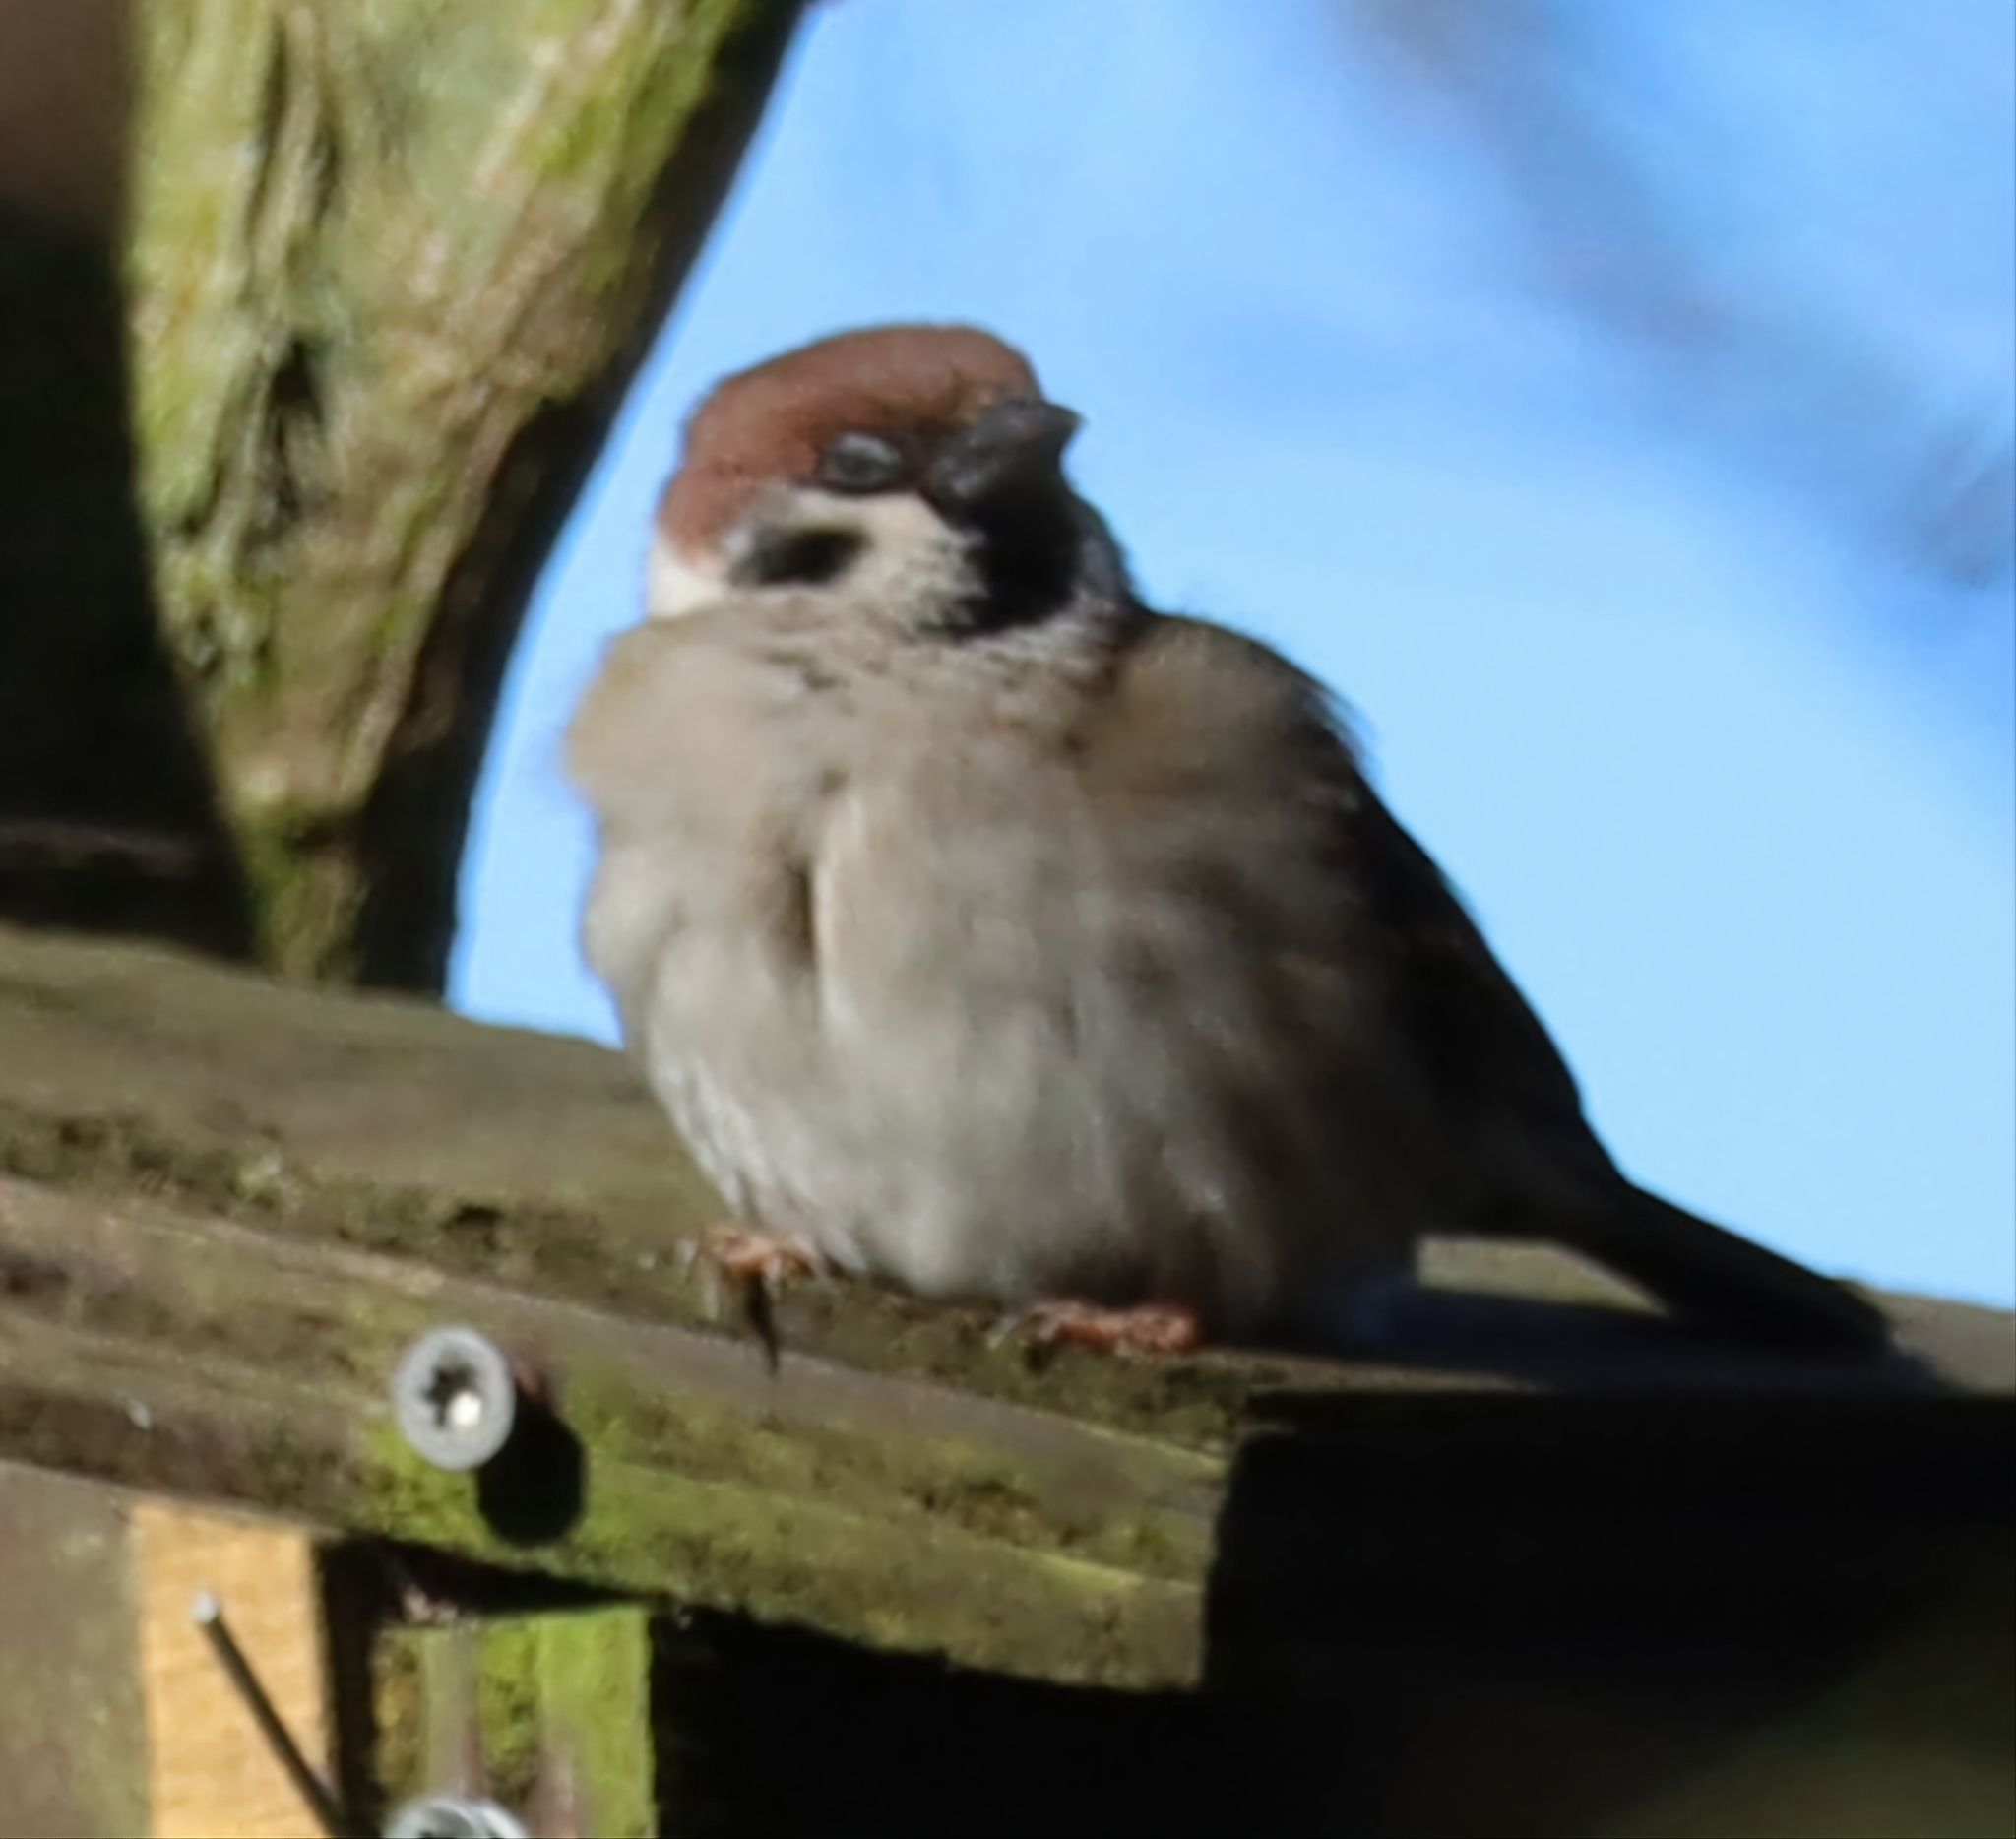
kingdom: Animalia
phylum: Chordata
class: Aves
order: Passeriformes
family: Passeridae
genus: Passer
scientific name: Passer montanus
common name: Eurasian tree sparrow
